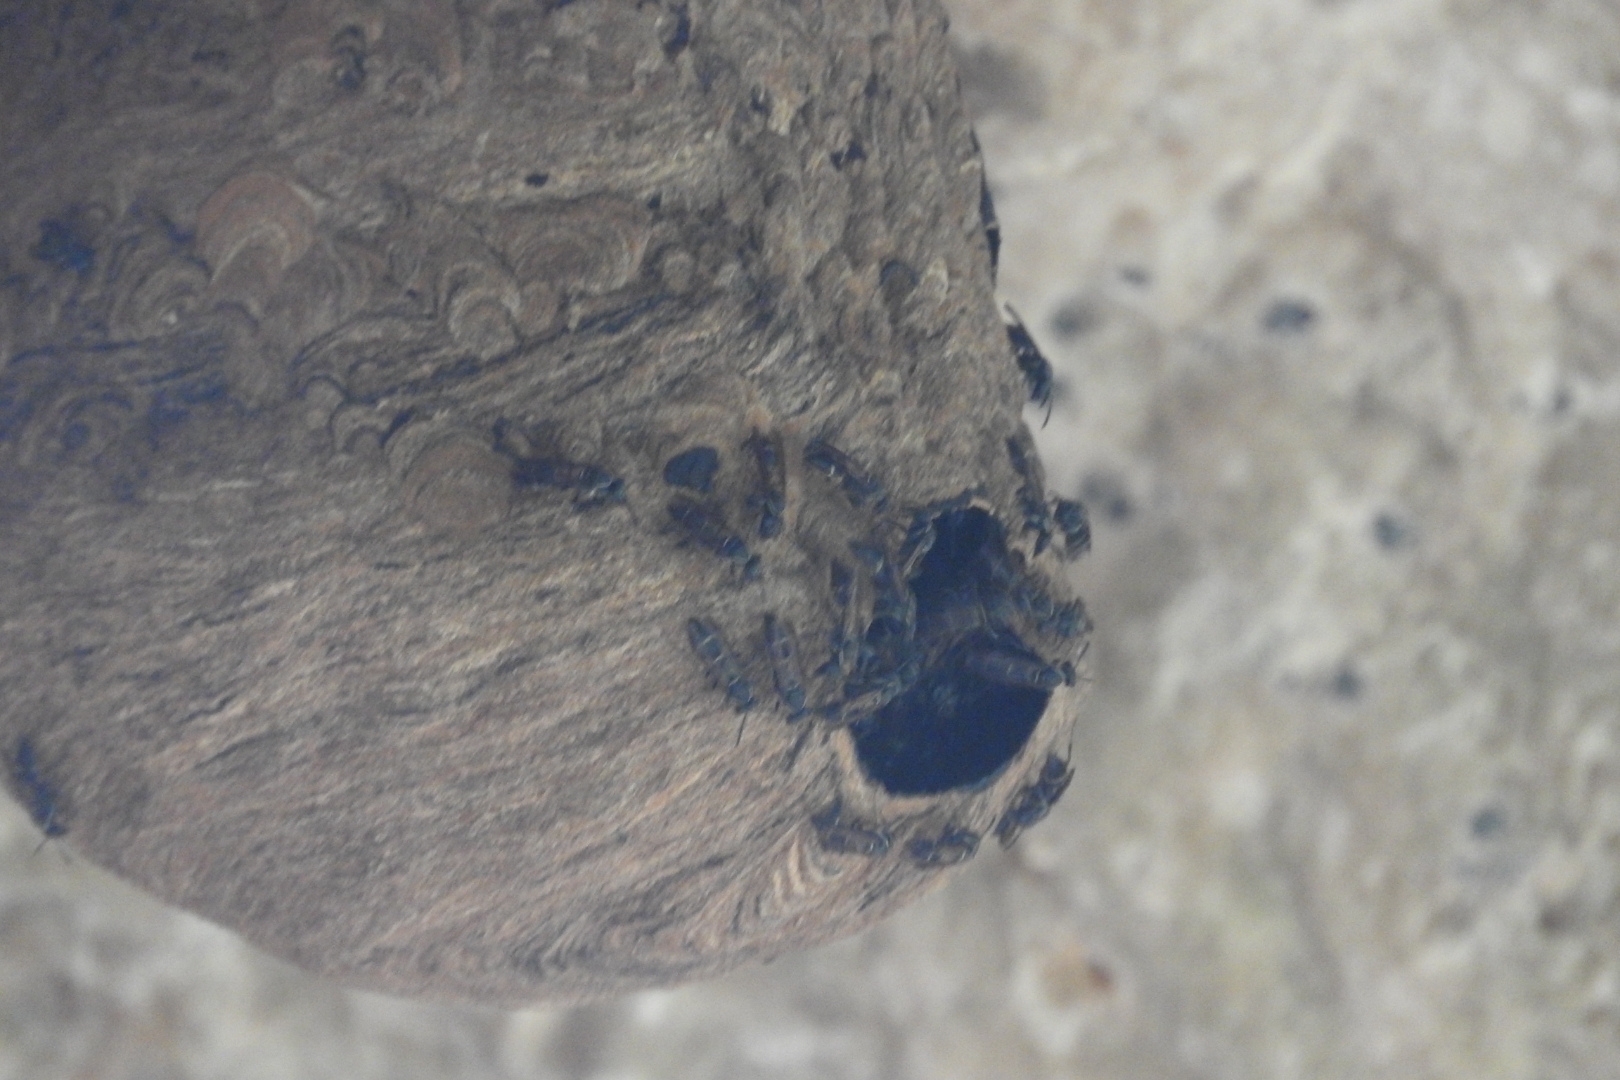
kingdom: Animalia
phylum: Arthropoda
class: Insecta
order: Hymenoptera
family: Eumenidae
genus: Polybia
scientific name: Polybia plebeja
